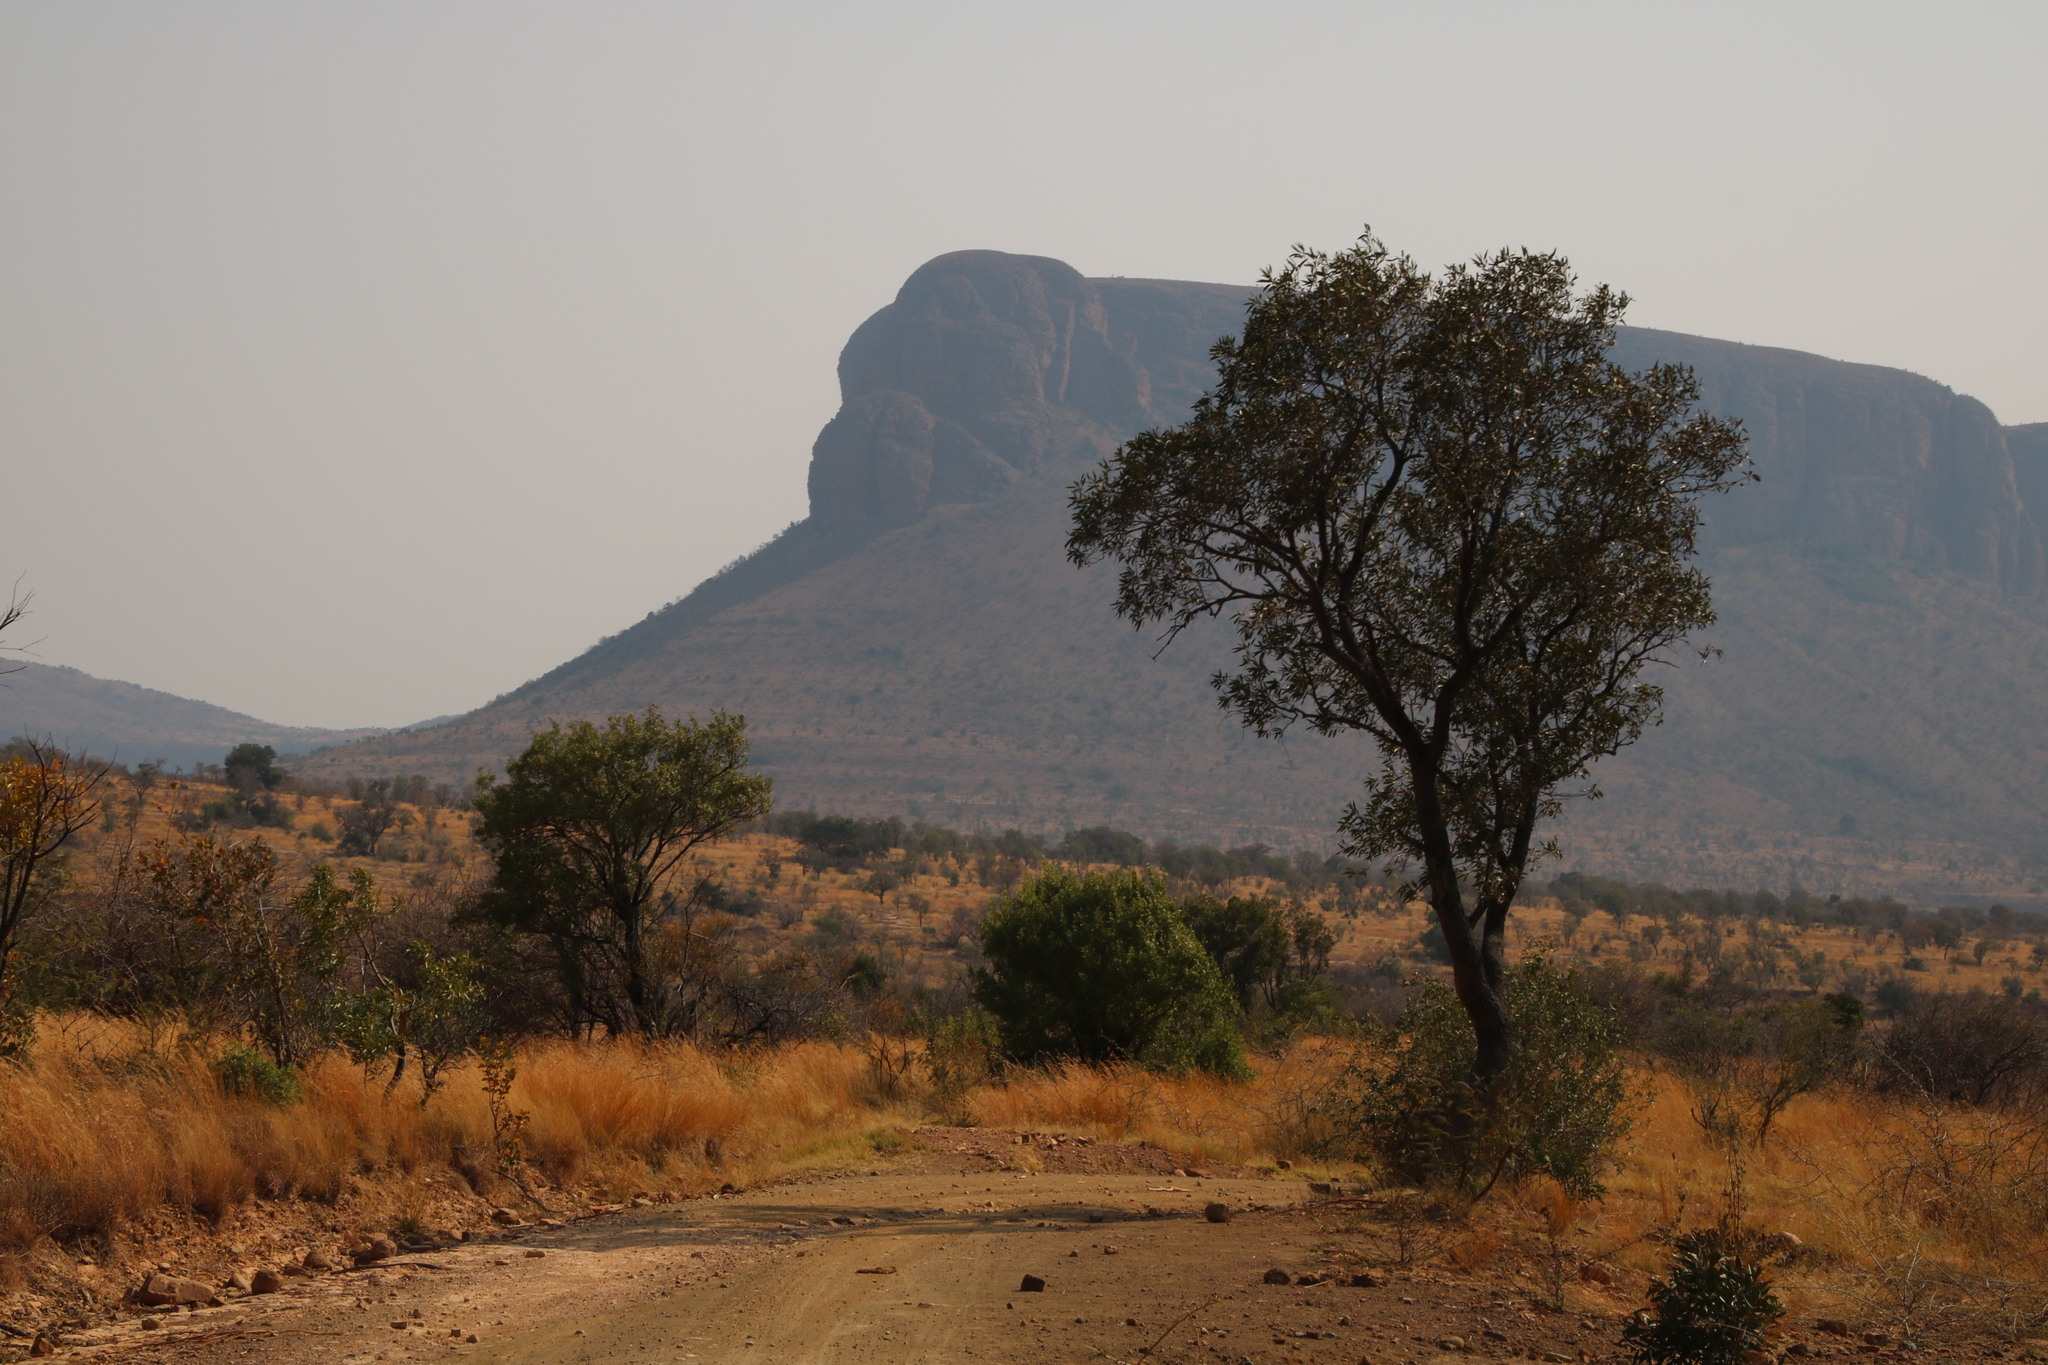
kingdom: Plantae
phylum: Tracheophyta
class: Magnoliopsida
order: Proteales
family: Proteaceae
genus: Faurea
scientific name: Faurea saligna
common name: African bean
